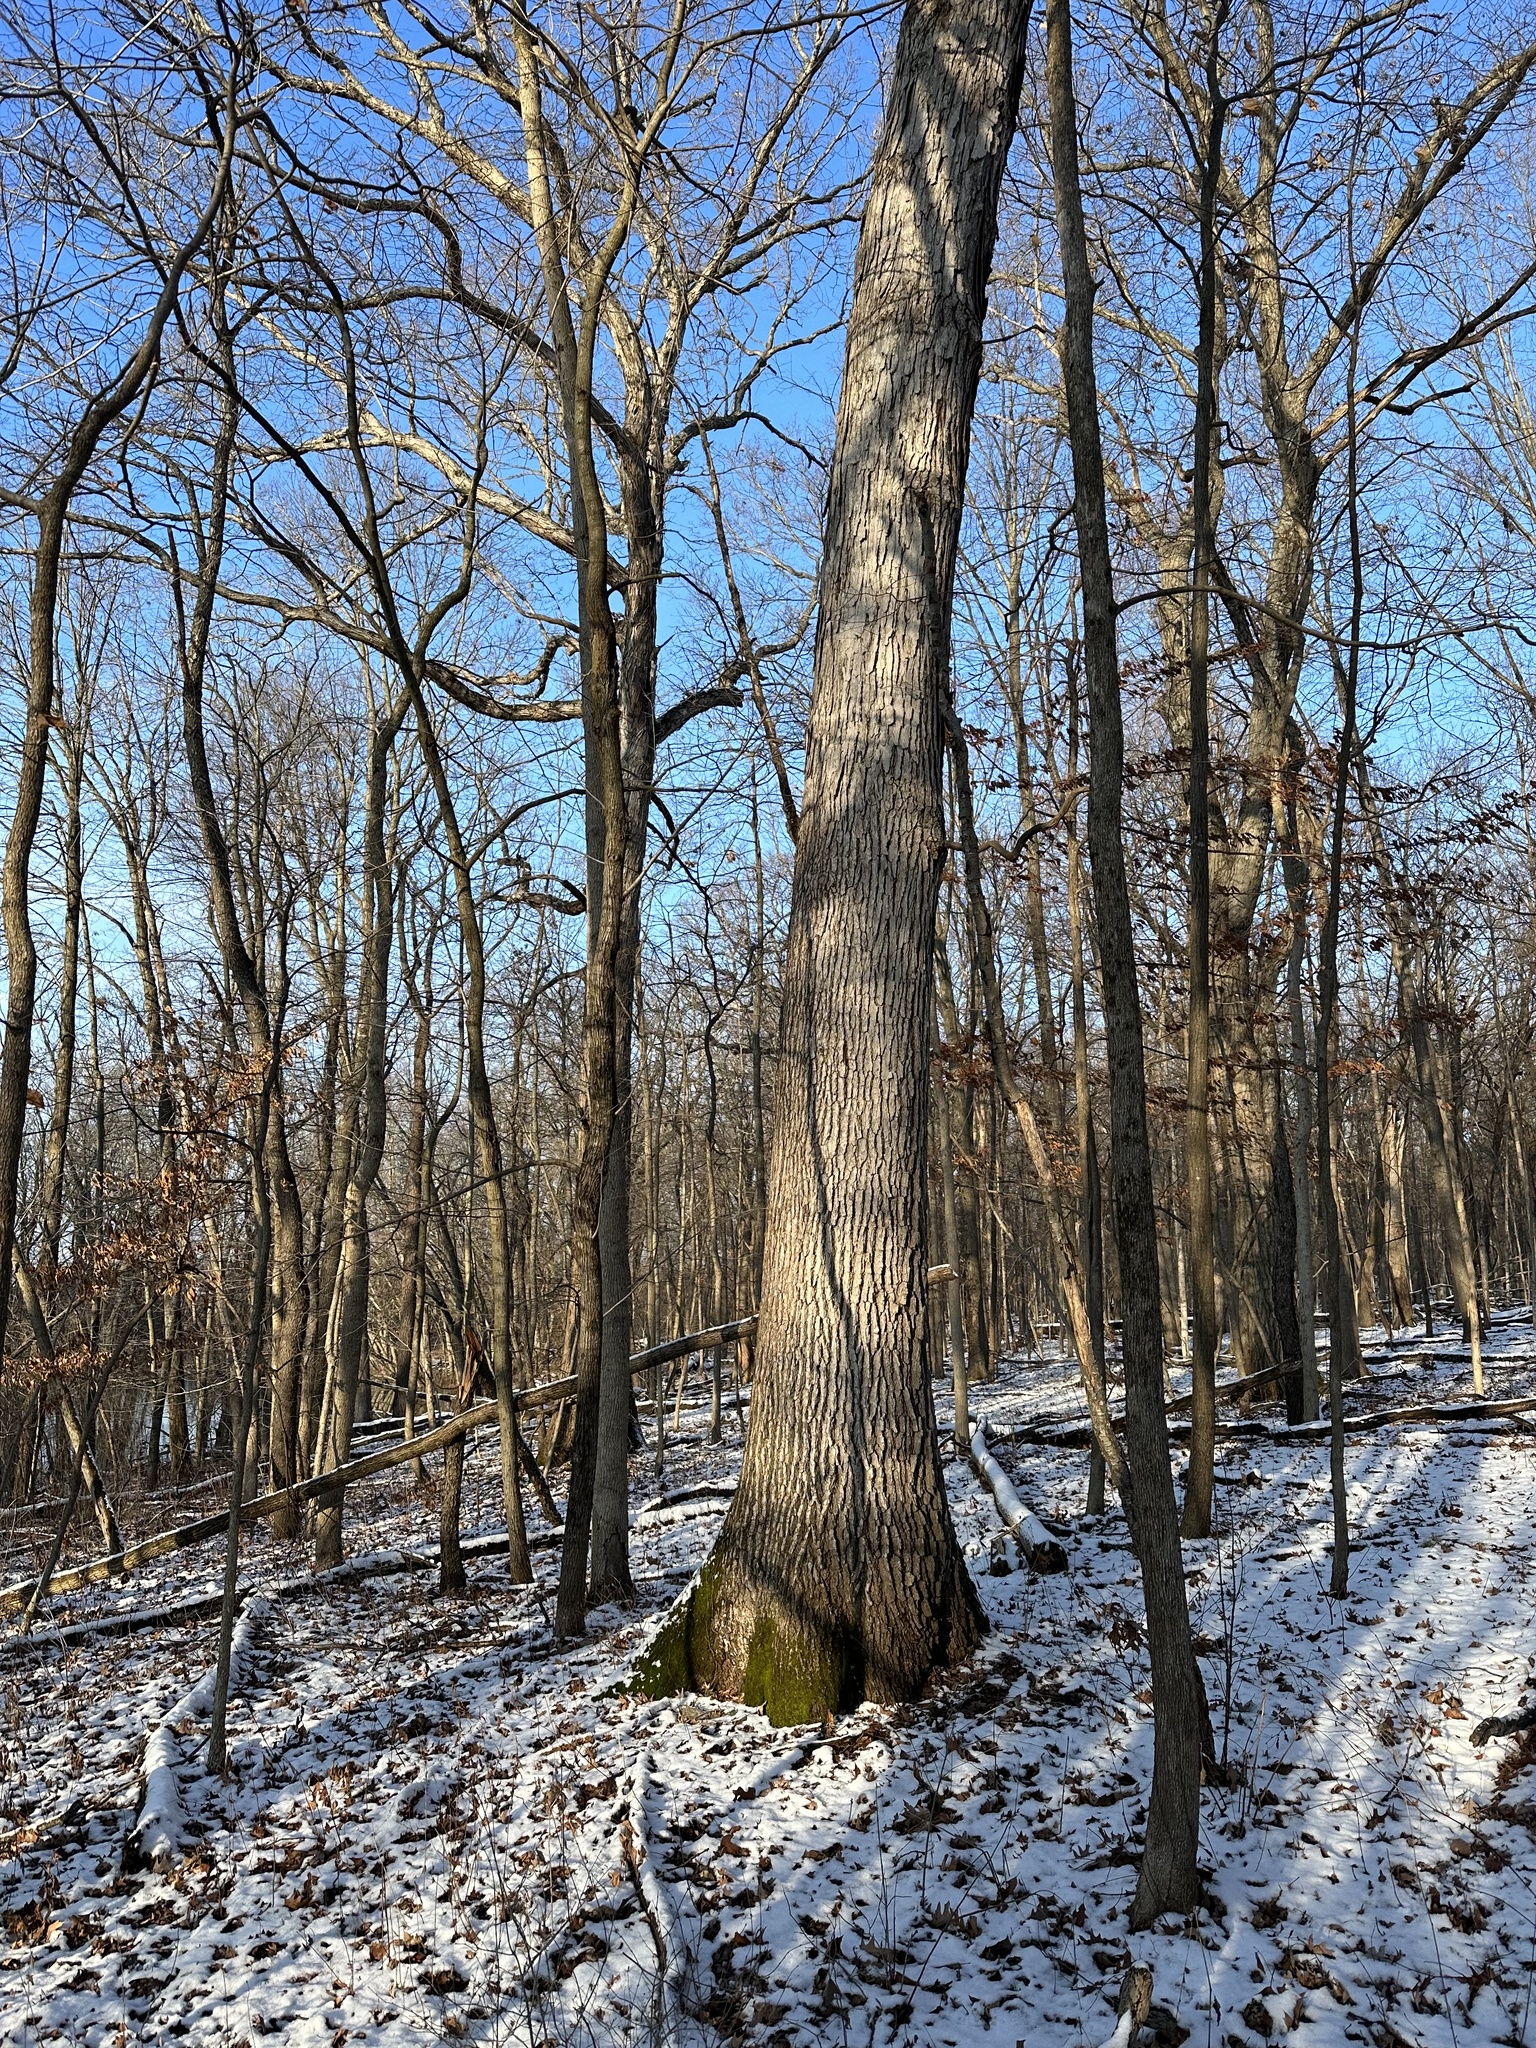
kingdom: Plantae
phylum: Tracheophyta
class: Magnoliopsida
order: Fagales
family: Fagaceae
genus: Quercus
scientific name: Quercus alba
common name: White oak
